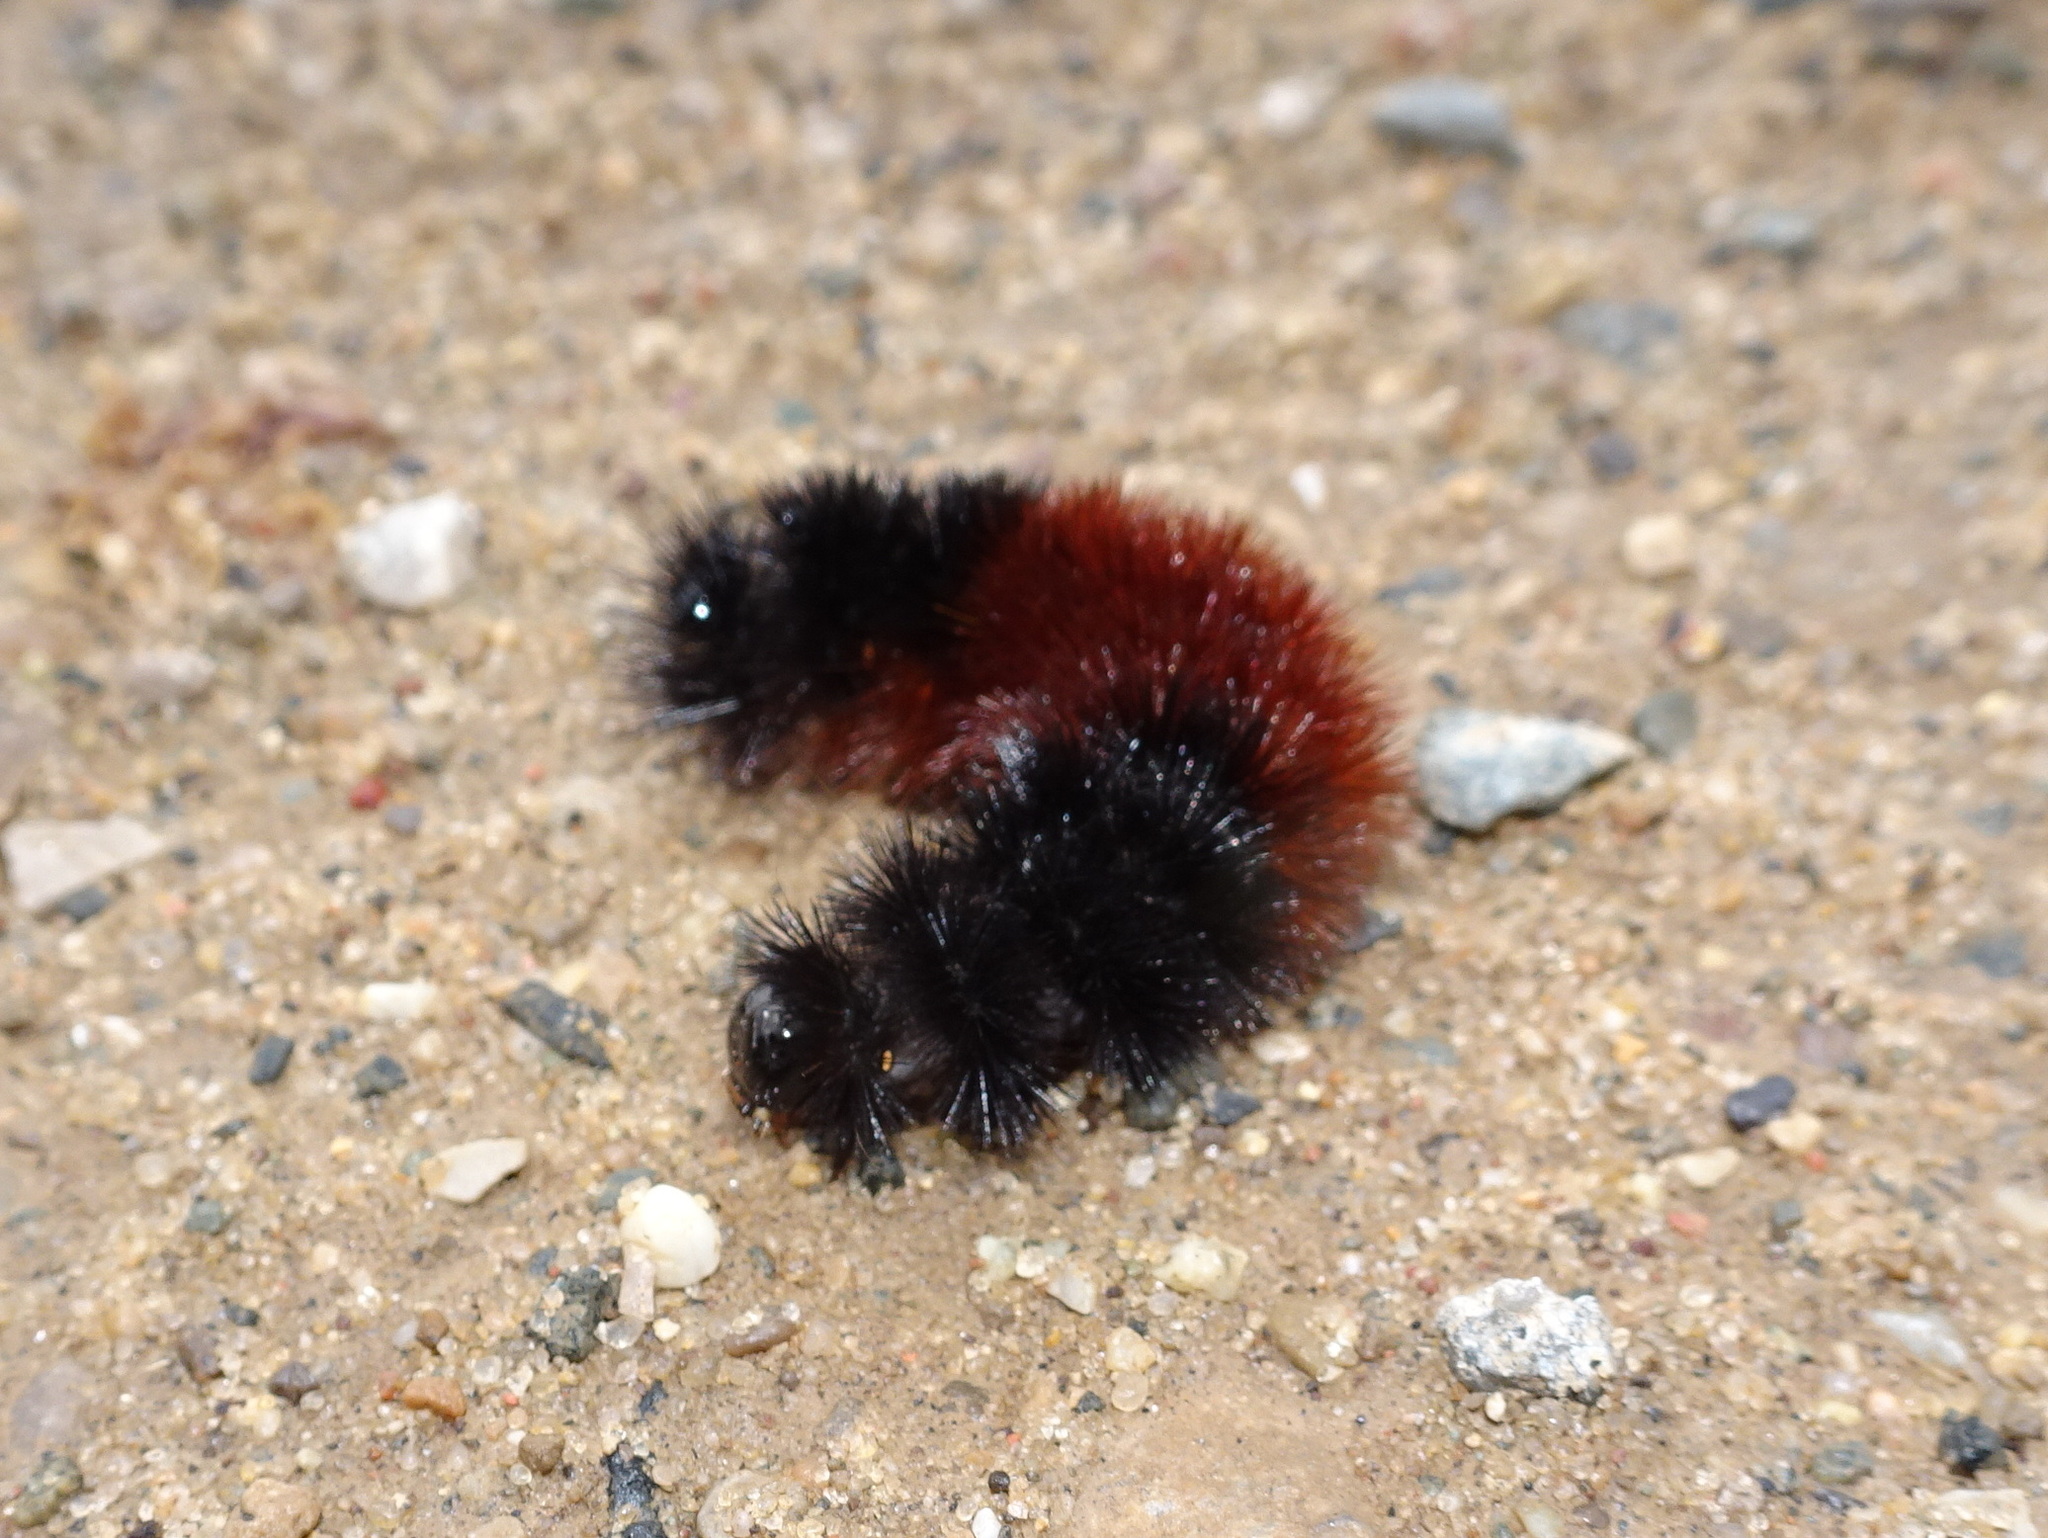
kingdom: Animalia
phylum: Arthropoda
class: Insecta
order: Lepidoptera
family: Erebidae
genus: Pyrrharctia
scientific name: Pyrrharctia isabella
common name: Isabella tiger moth
